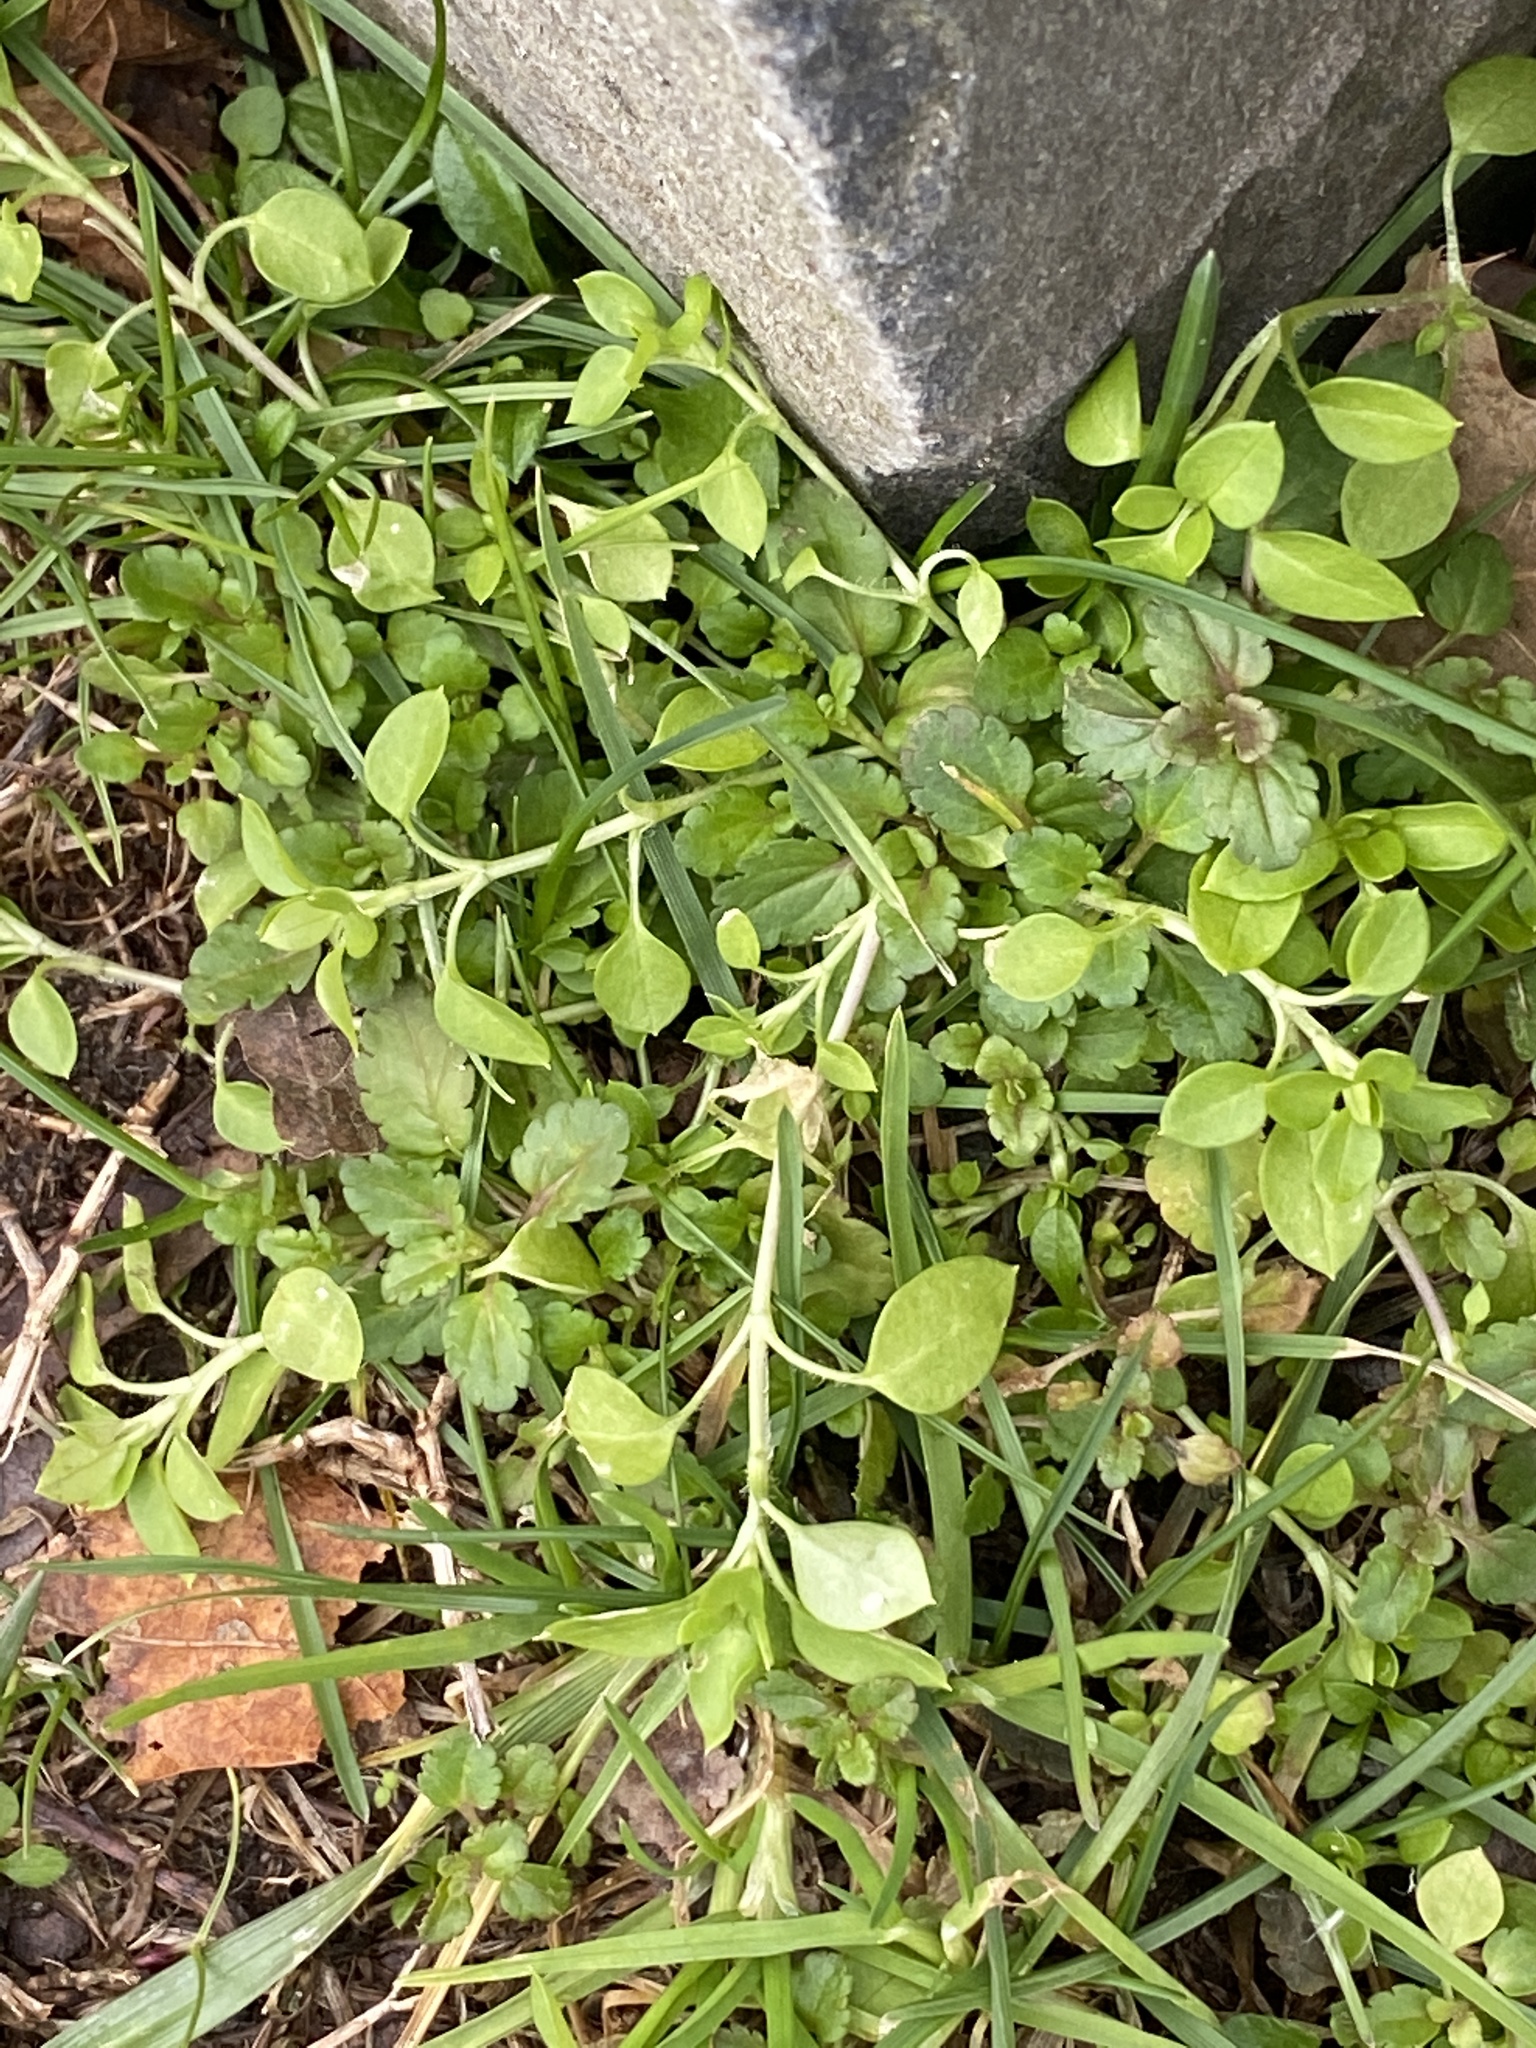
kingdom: Plantae
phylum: Tracheophyta
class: Magnoliopsida
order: Caryophyllales
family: Caryophyllaceae
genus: Stellaria
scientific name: Stellaria media
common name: Common chickweed
